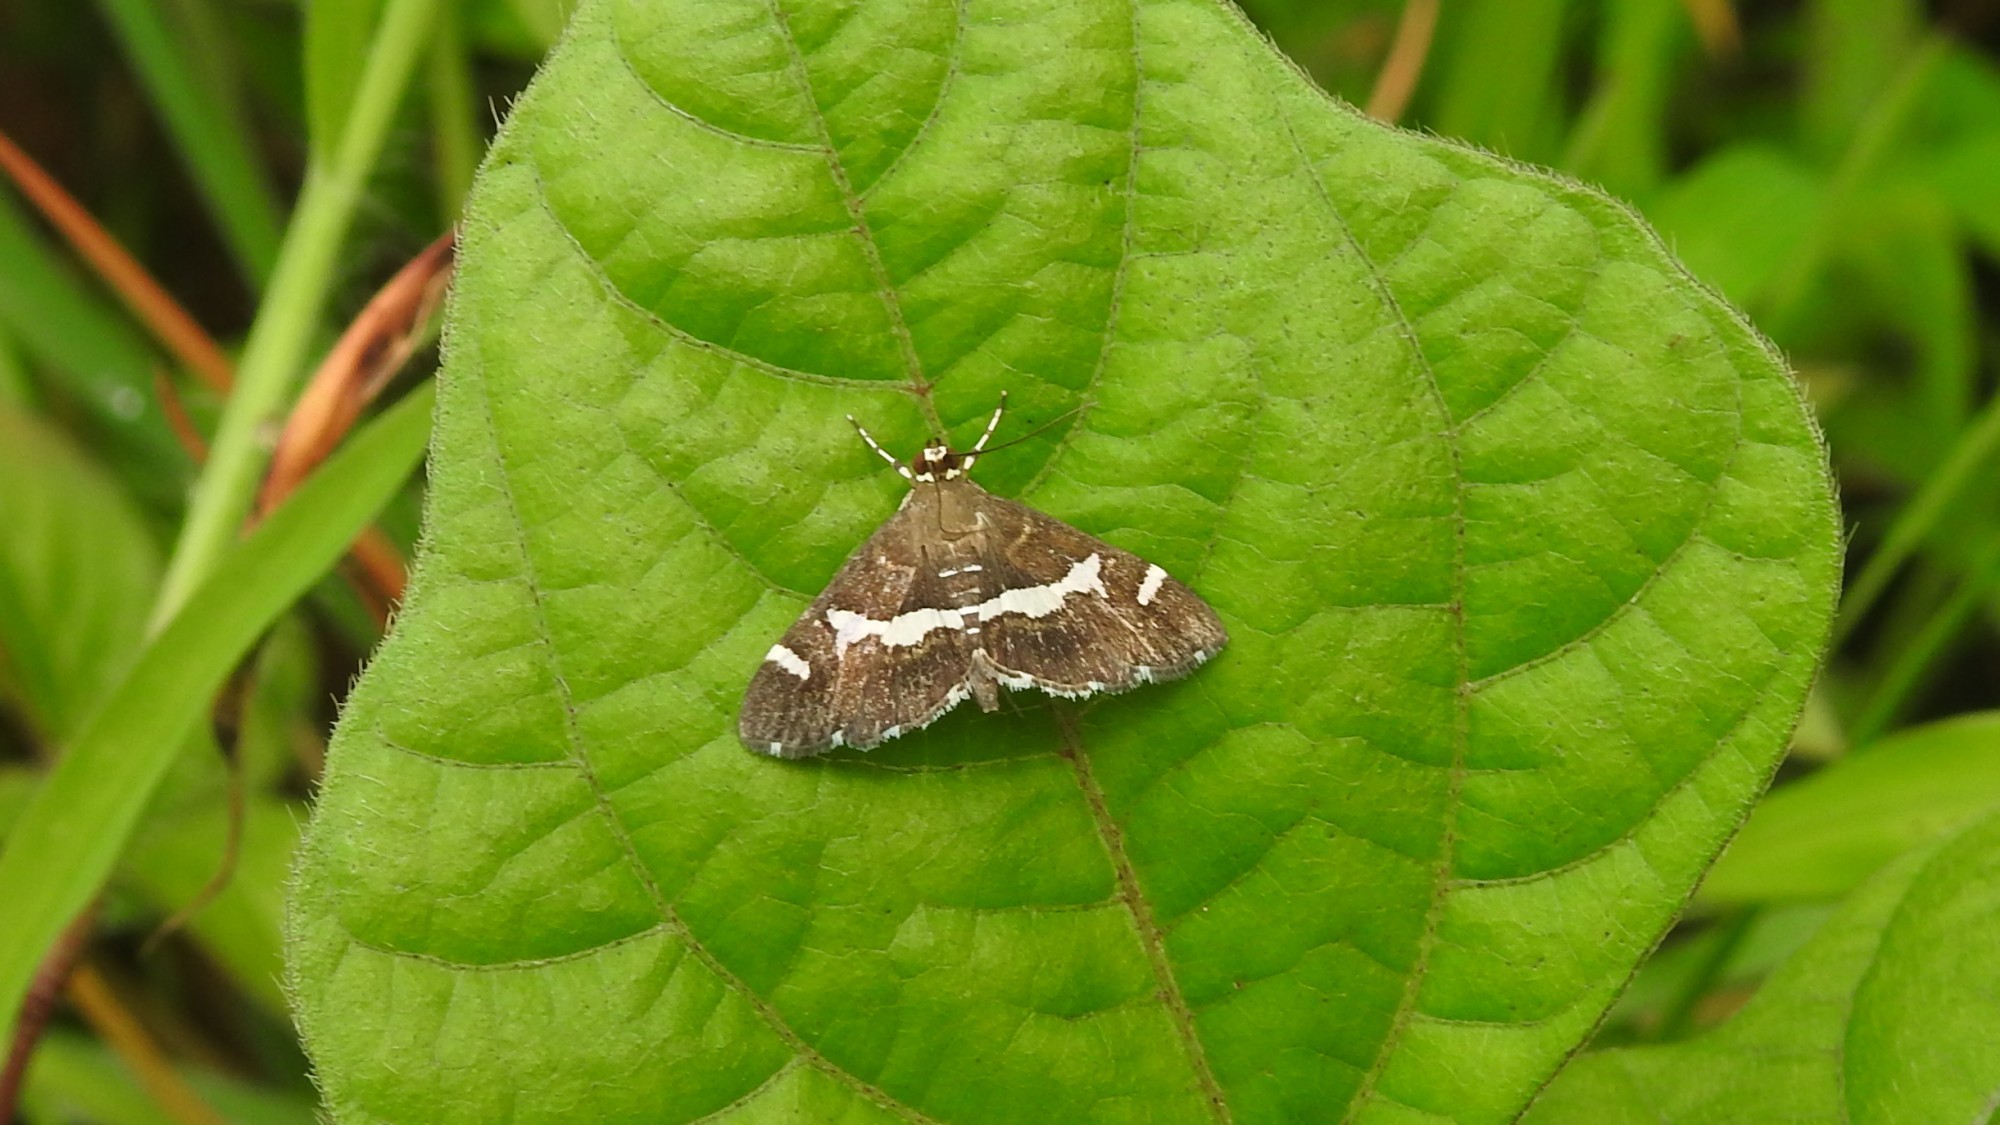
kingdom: Animalia
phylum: Arthropoda
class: Insecta
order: Lepidoptera
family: Crambidae
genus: Spoladea
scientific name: Spoladea recurvalis
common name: Beet webworm moth
